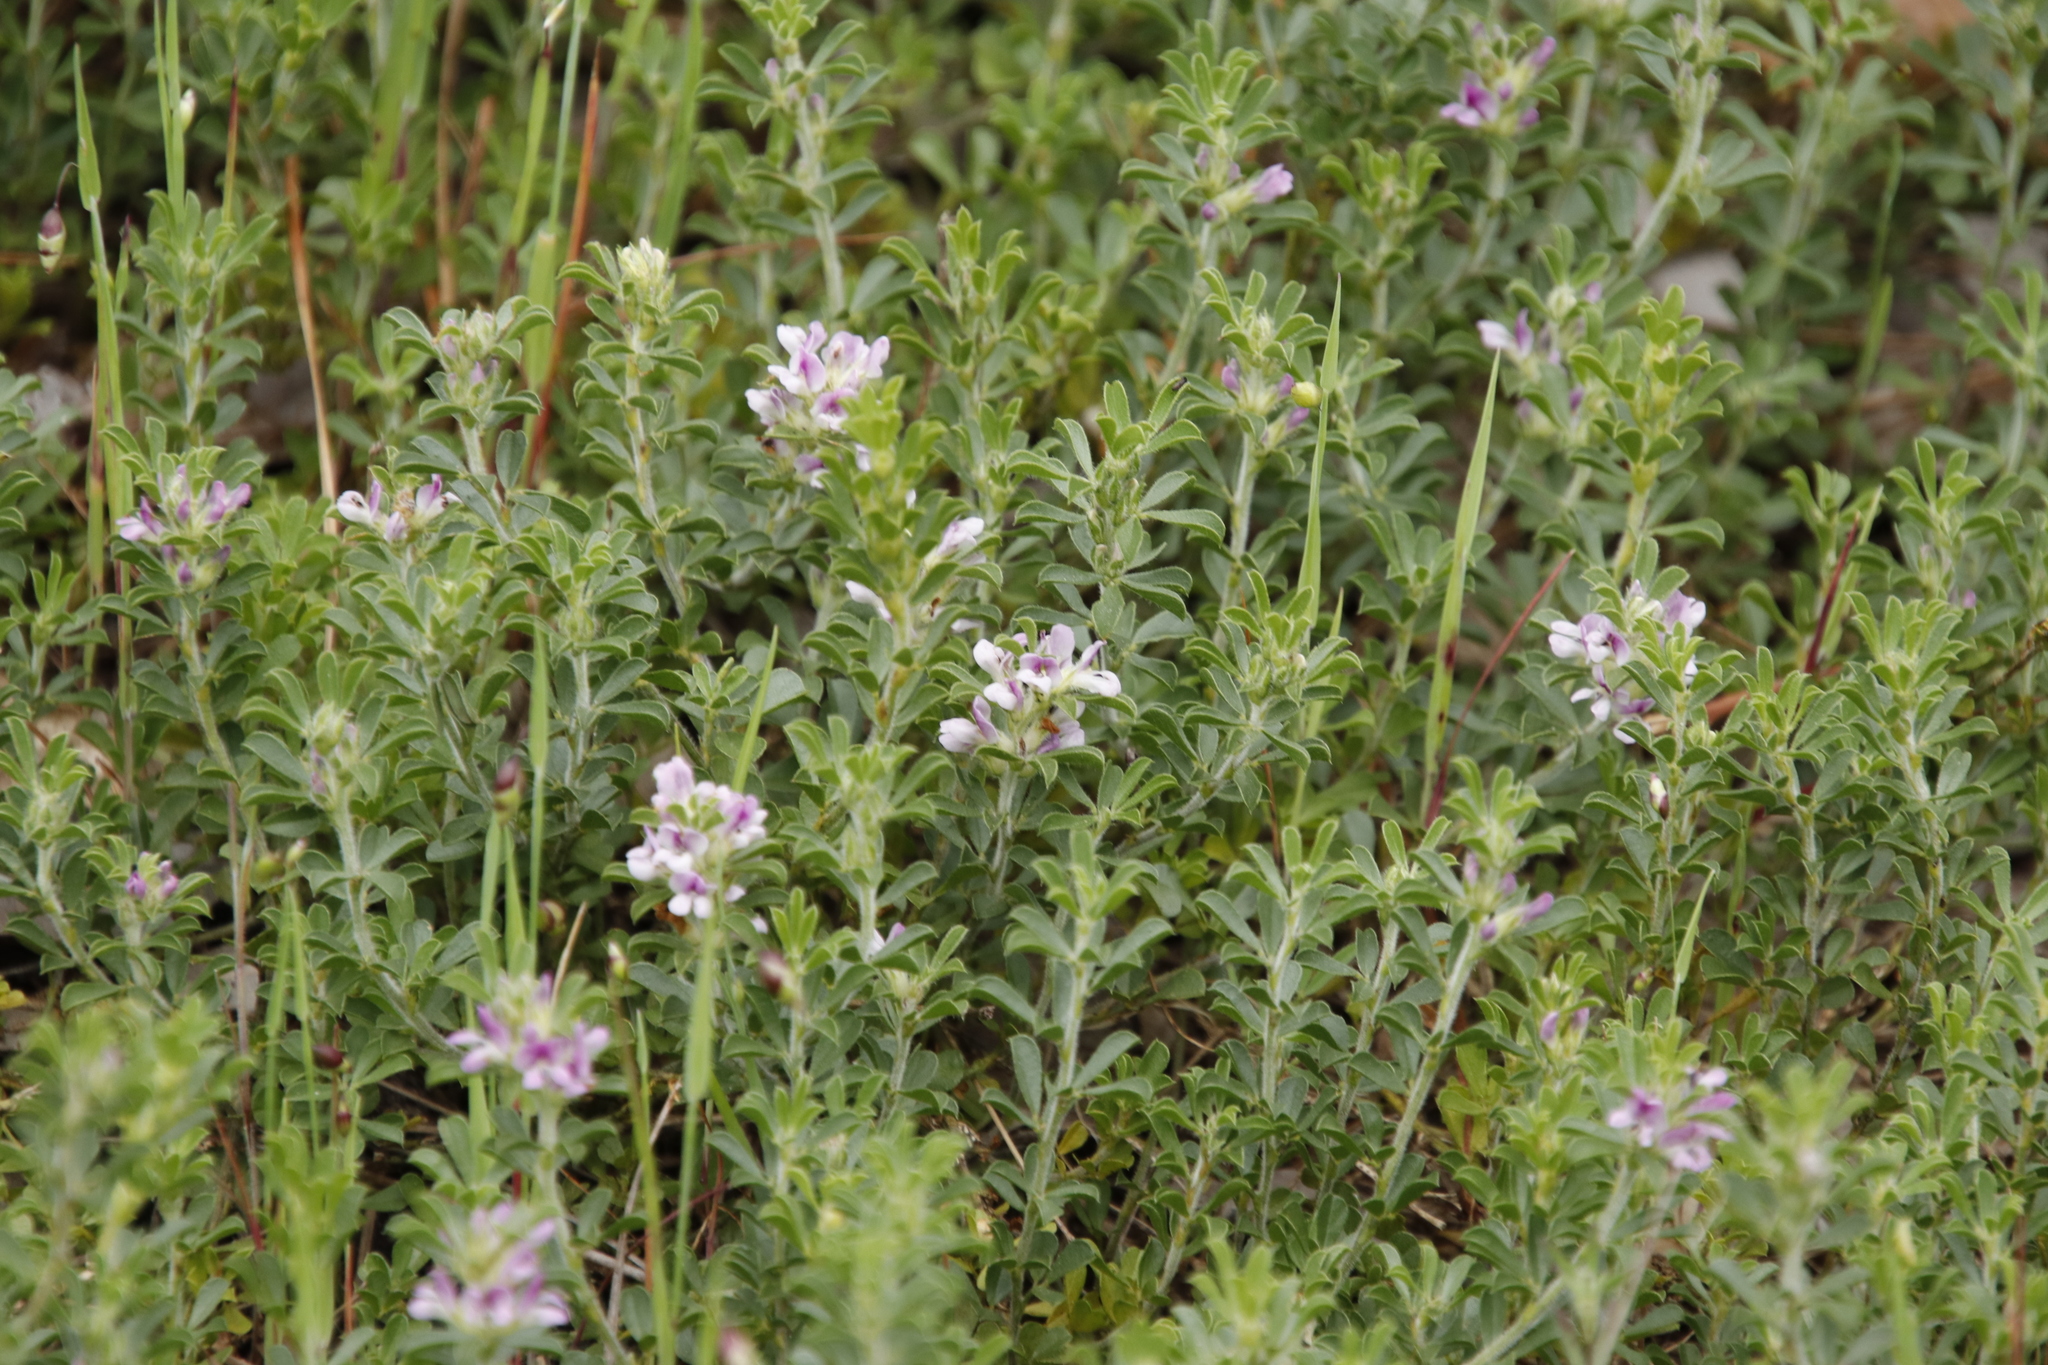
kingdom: Plantae
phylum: Tracheophyta
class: Magnoliopsida
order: Fabales
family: Fabaceae
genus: Psoralea
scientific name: Psoralea
